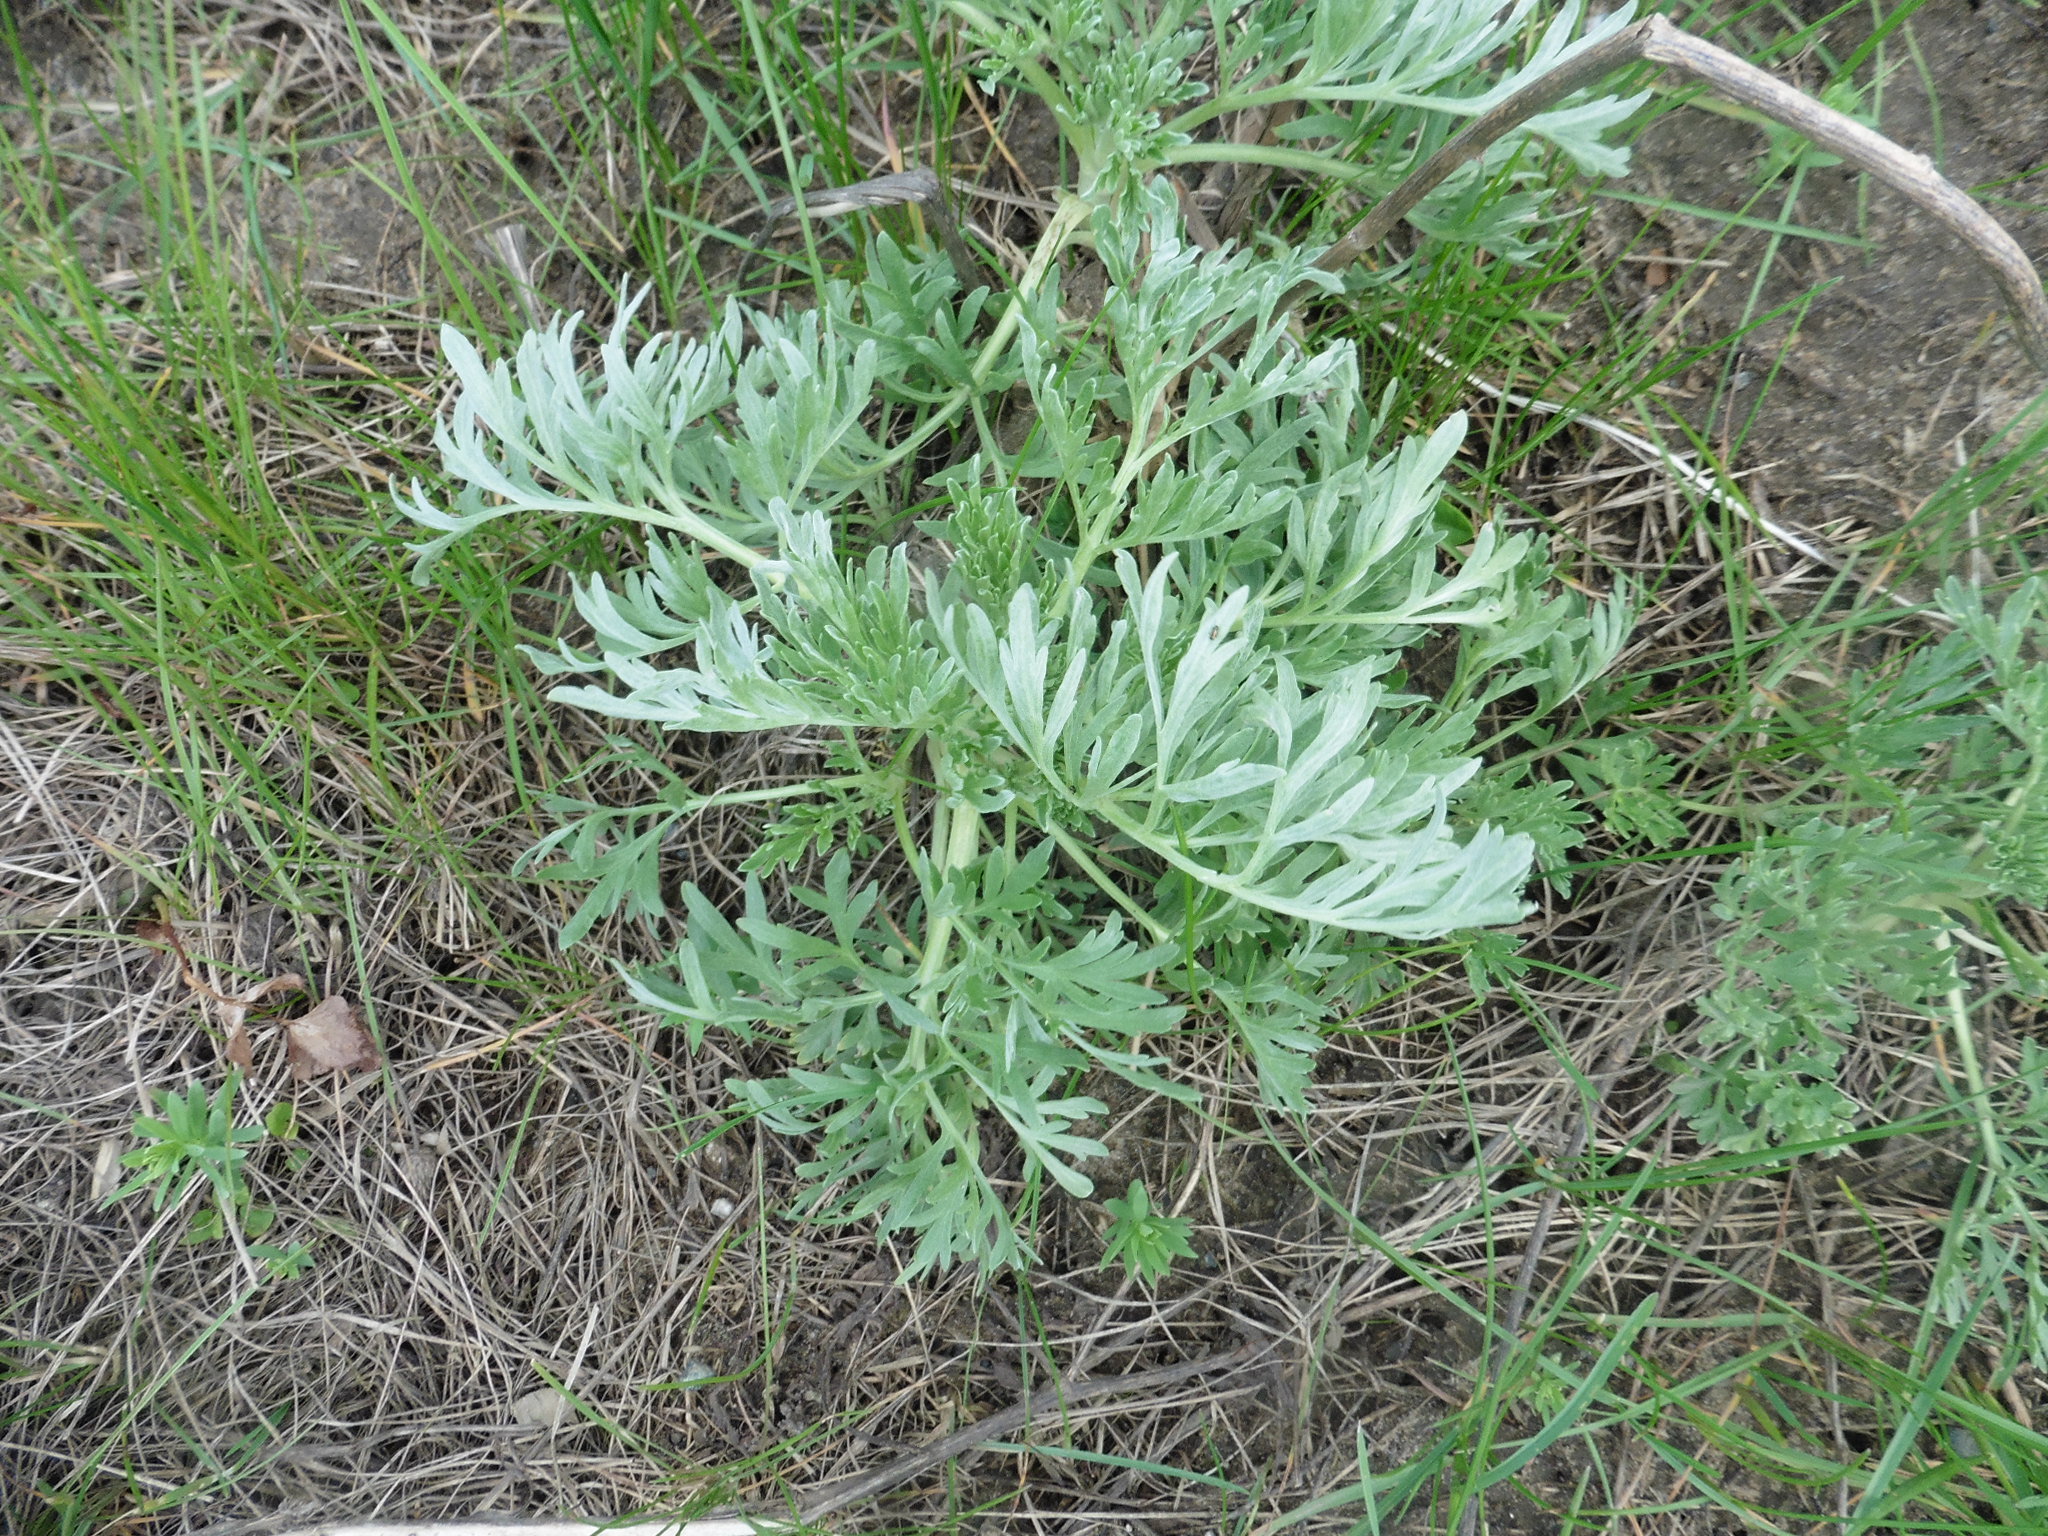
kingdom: Plantae
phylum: Tracheophyta
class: Magnoliopsida
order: Asterales
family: Asteraceae
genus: Artemisia
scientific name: Artemisia absinthium
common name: Wormwood
